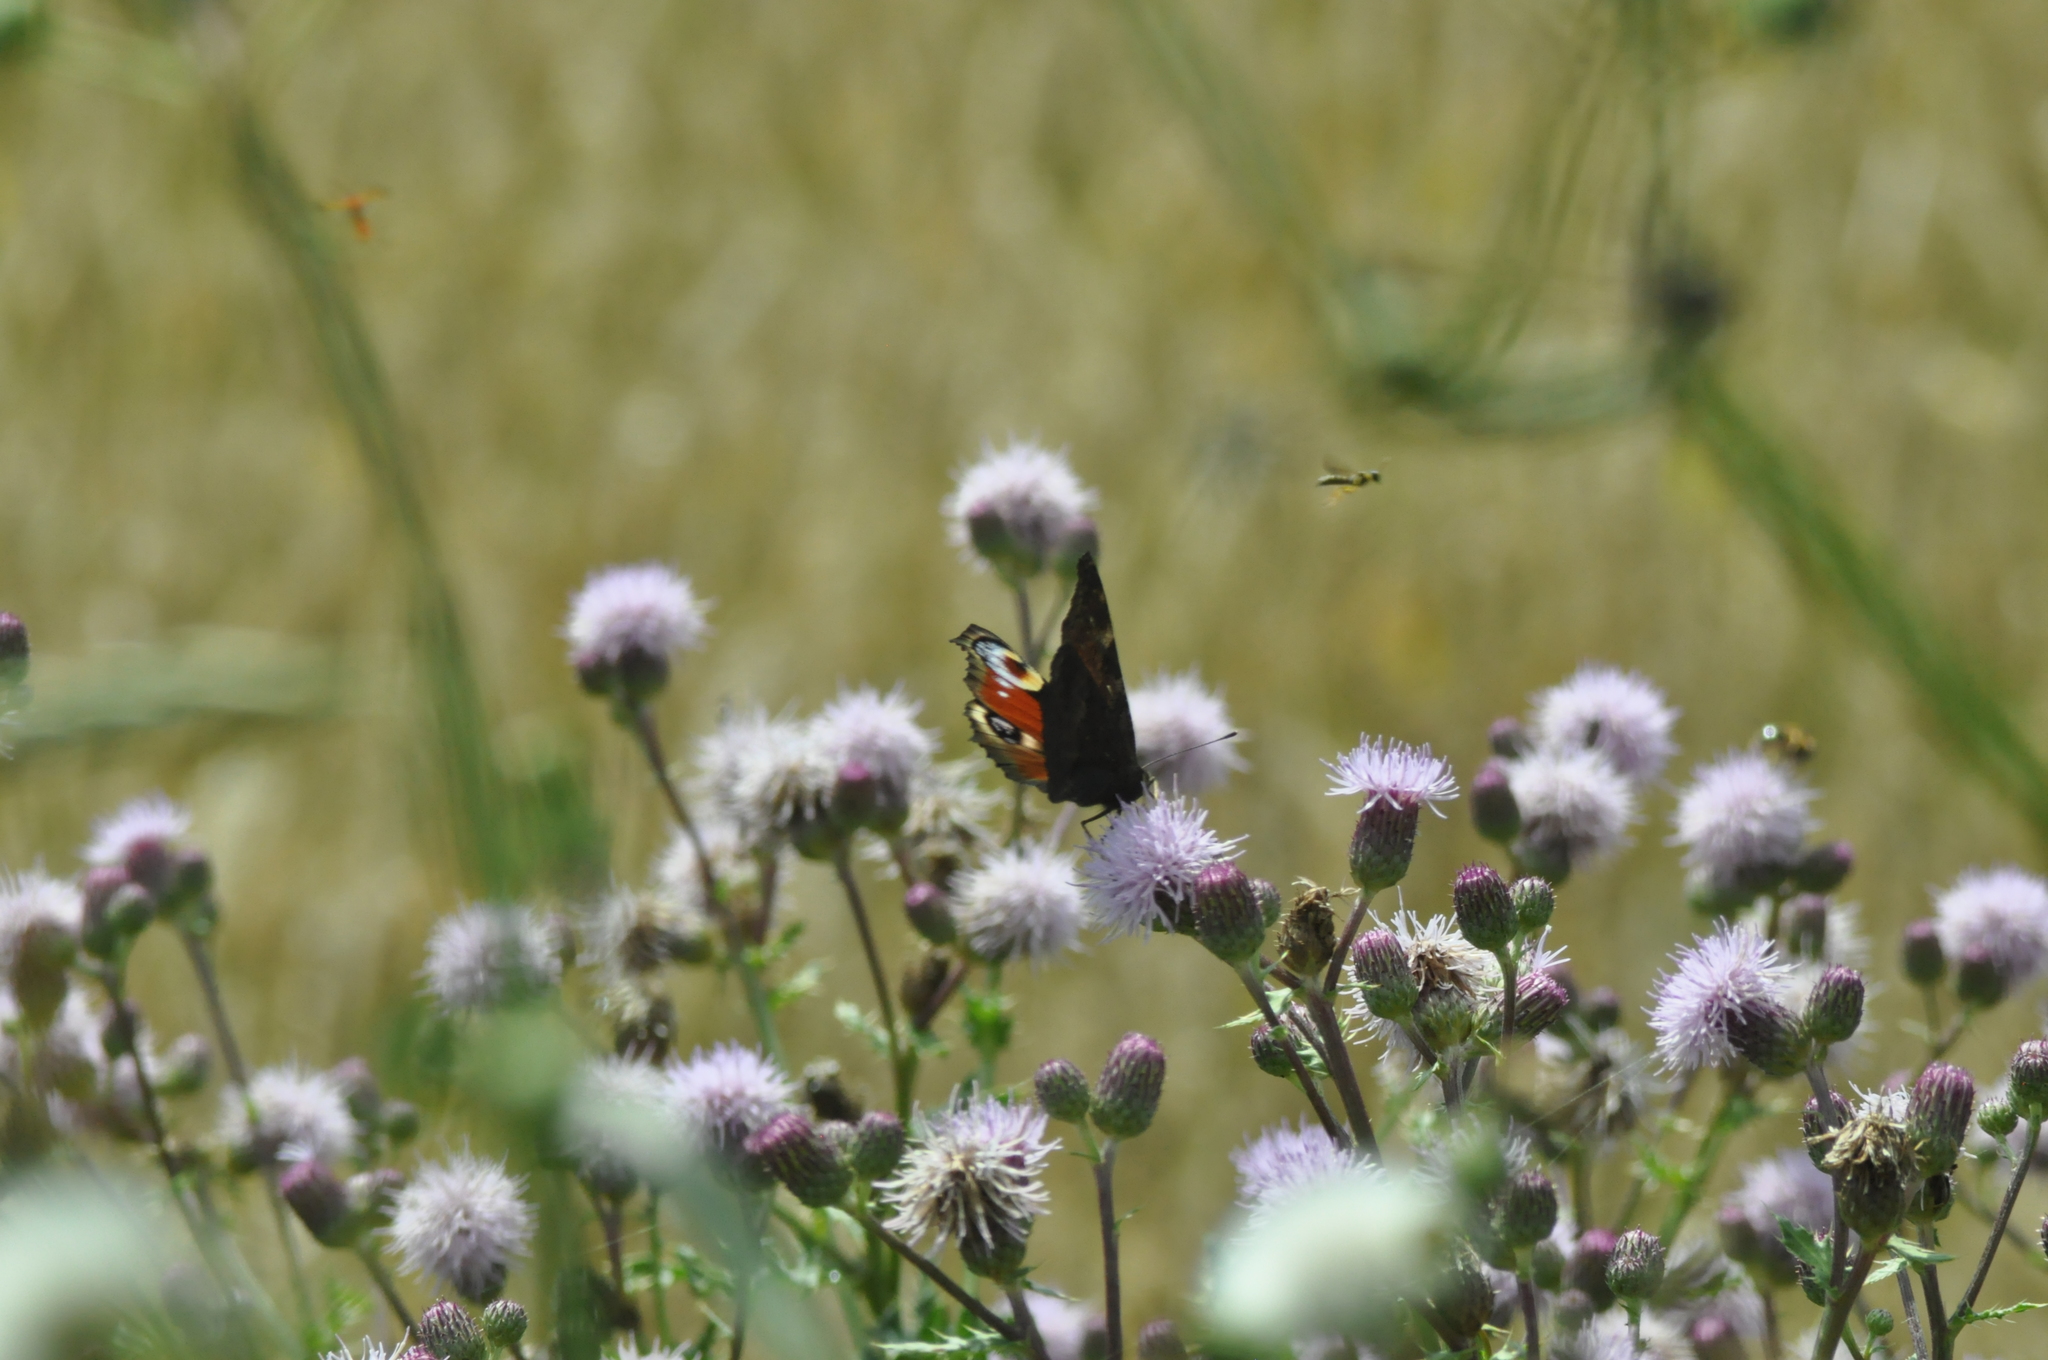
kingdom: Animalia
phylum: Arthropoda
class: Insecta
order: Lepidoptera
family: Nymphalidae
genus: Aglais
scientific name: Aglais io
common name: Peacock
